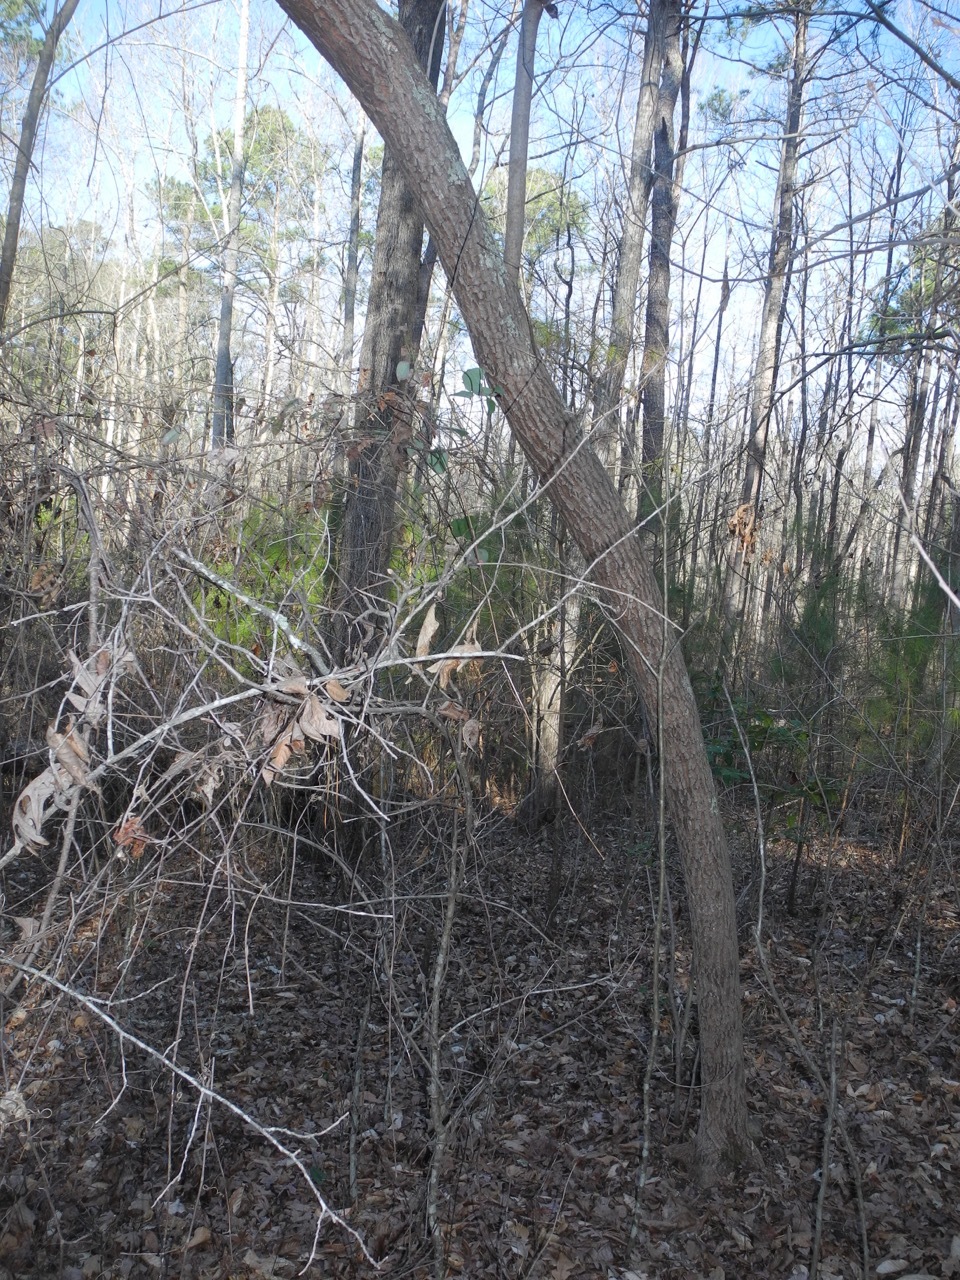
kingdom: Plantae
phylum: Tracheophyta
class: Magnoliopsida
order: Ericales
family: Ericaceae
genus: Oxydendrum
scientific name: Oxydendrum arboreum
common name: Sourwood
